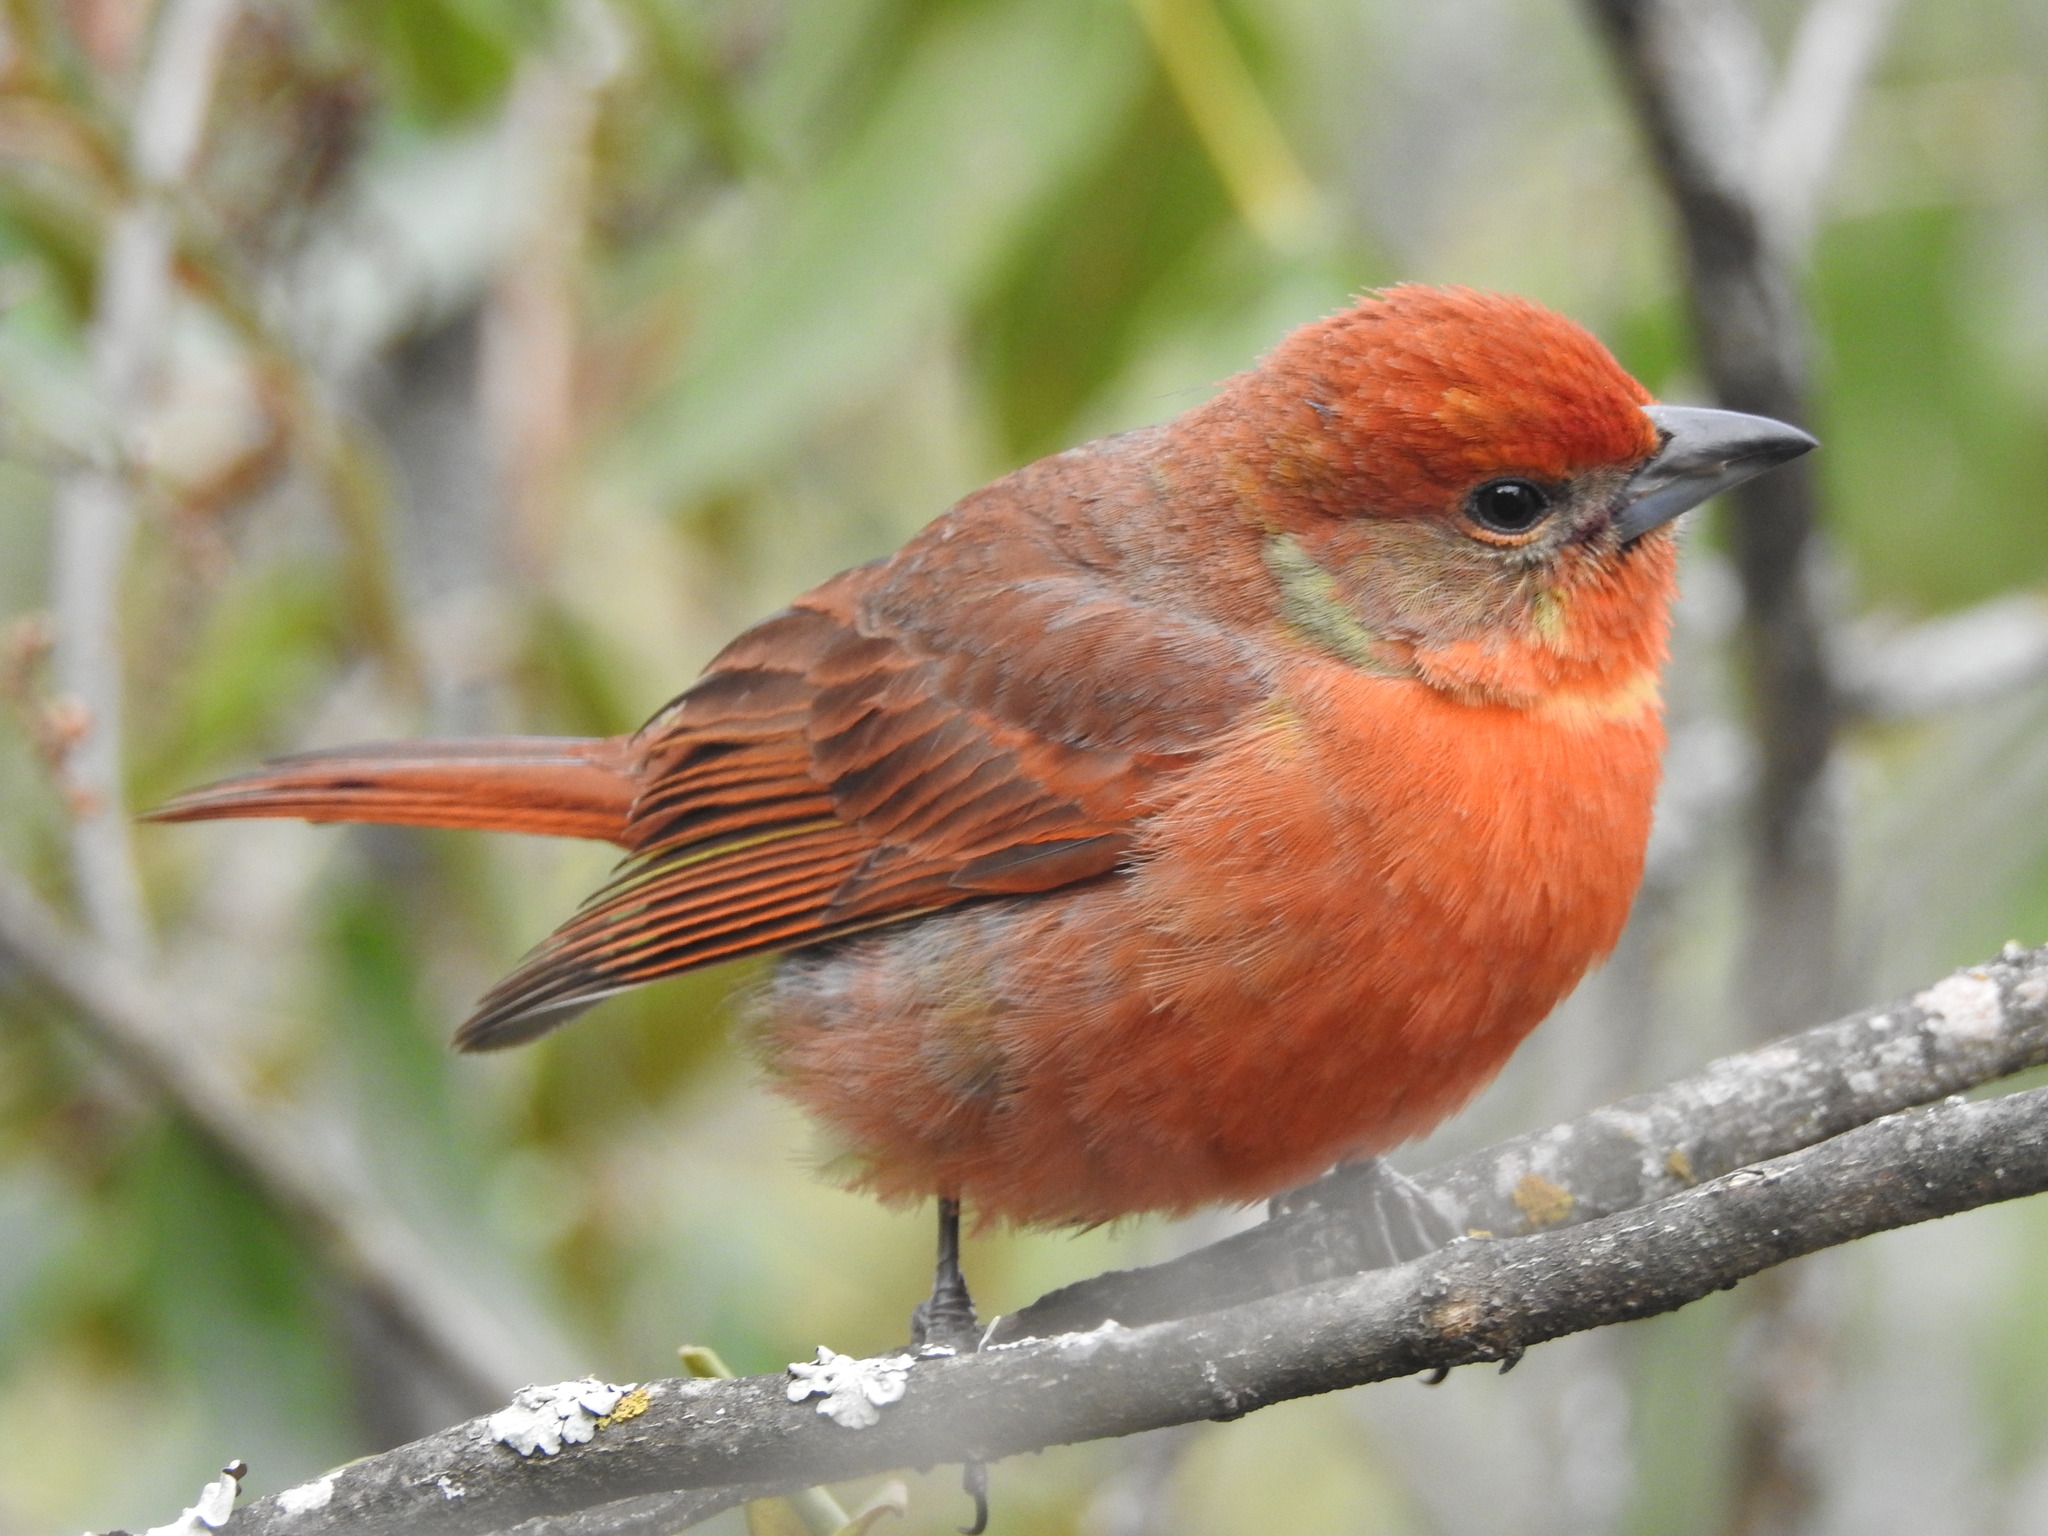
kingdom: Animalia
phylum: Chordata
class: Aves
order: Passeriformes
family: Cardinalidae
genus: Piranga
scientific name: Piranga flava
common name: Red tanager
